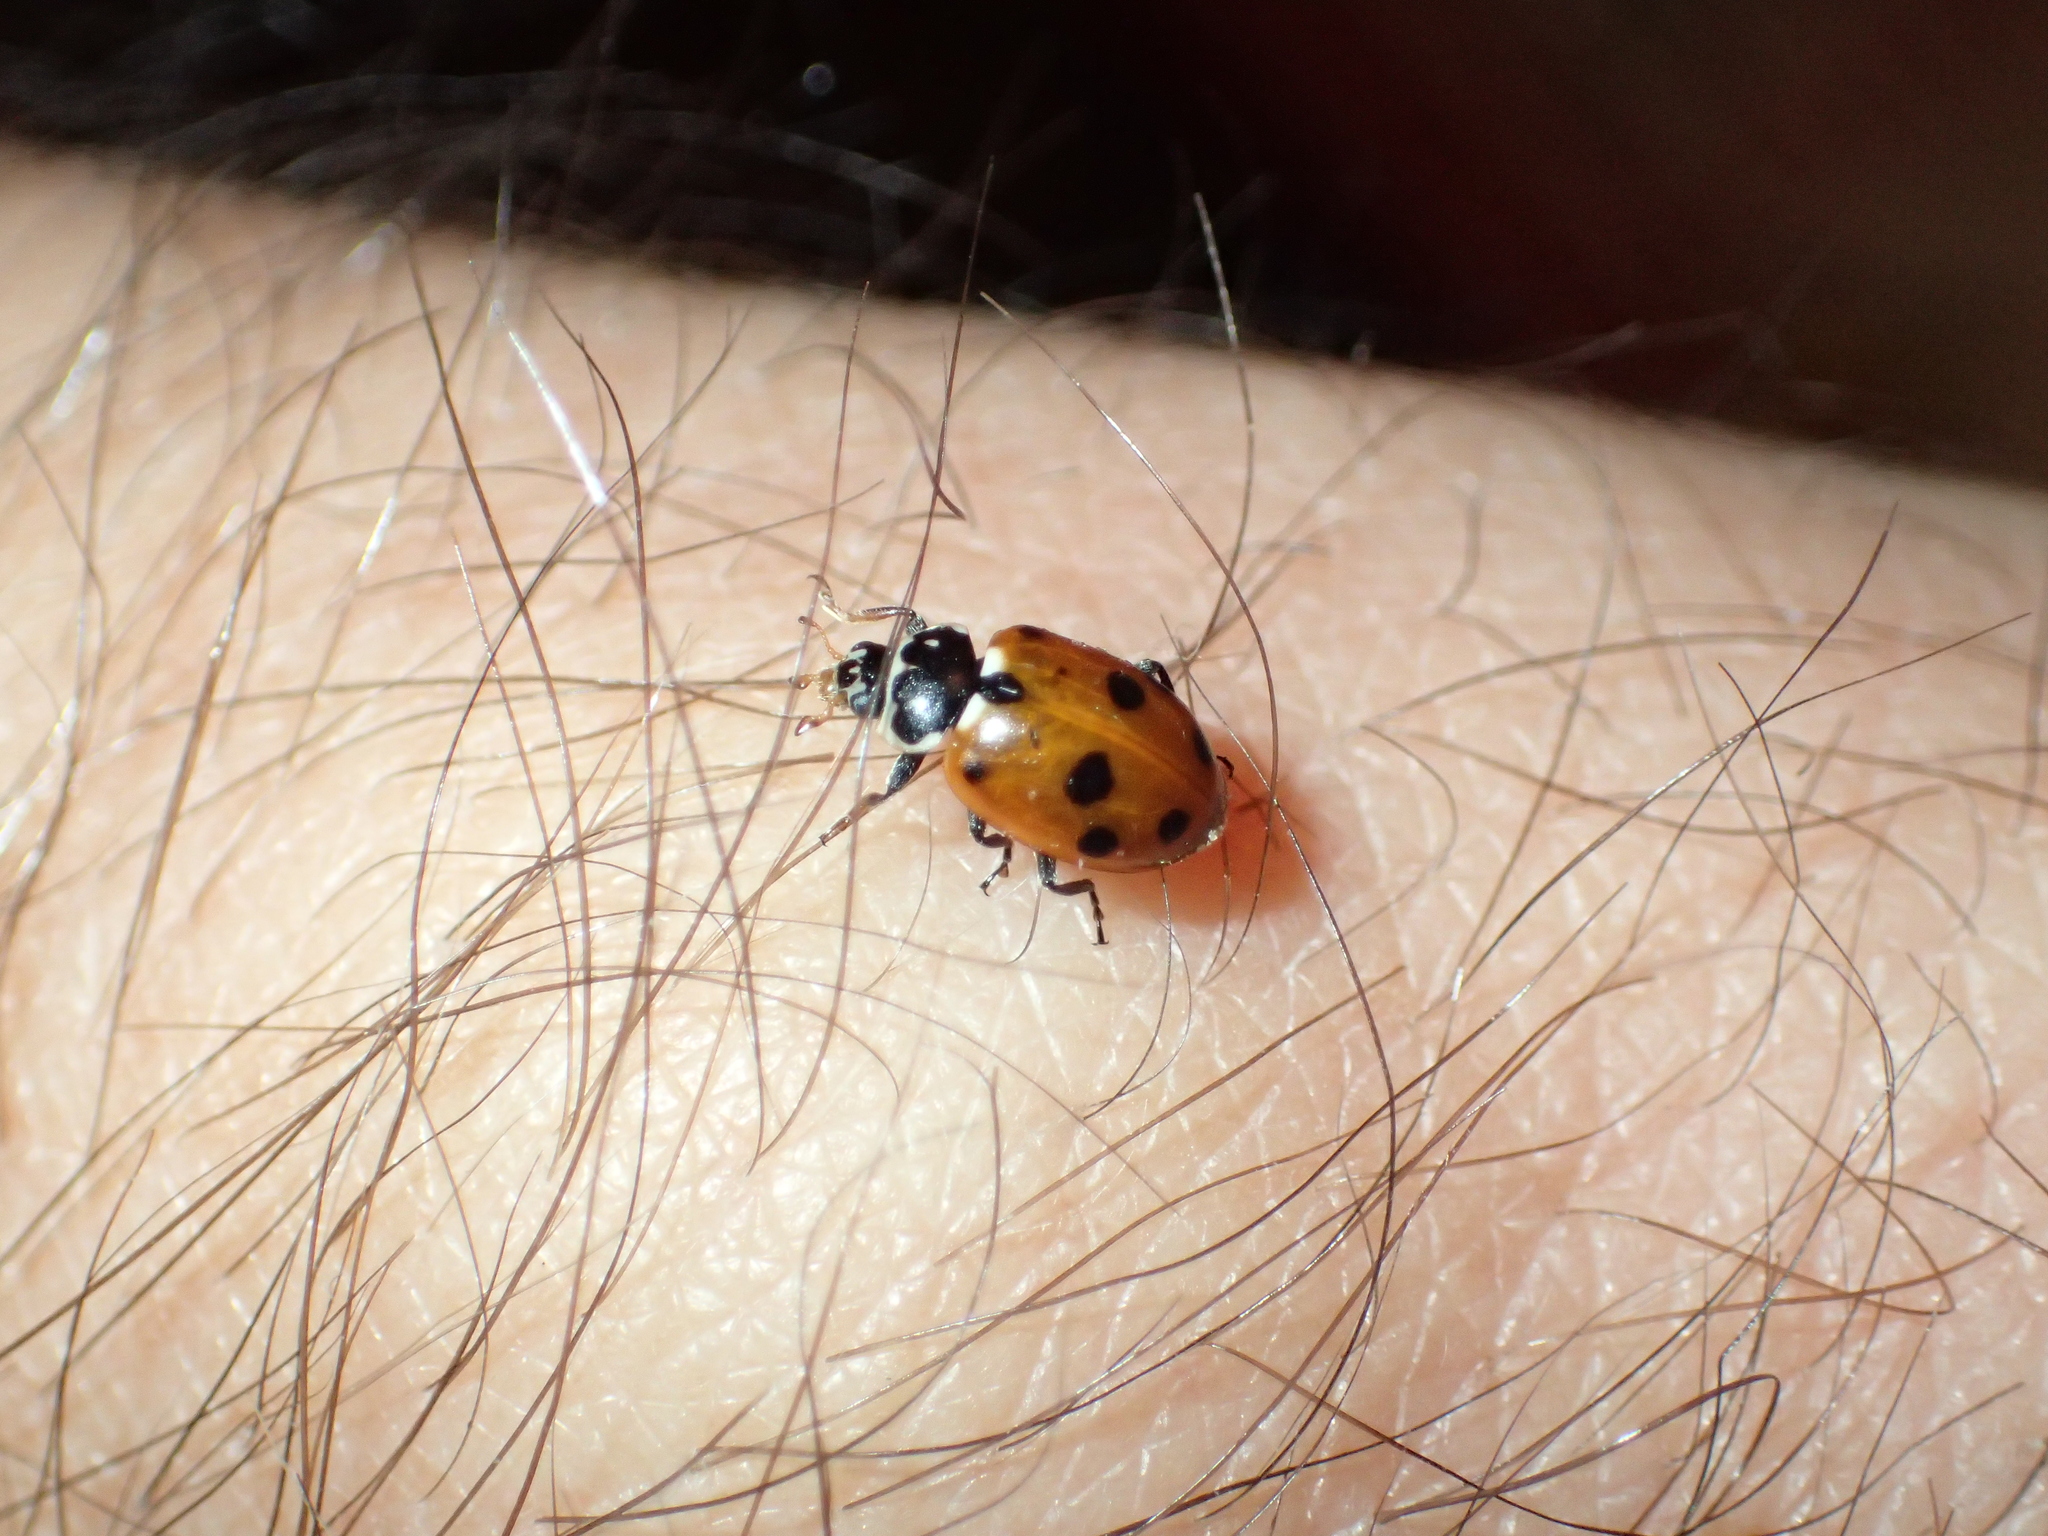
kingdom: Animalia
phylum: Arthropoda
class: Insecta
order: Coleoptera
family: Coccinellidae
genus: Hippodamia
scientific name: Hippodamia variegata
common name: Ladybird beetle
